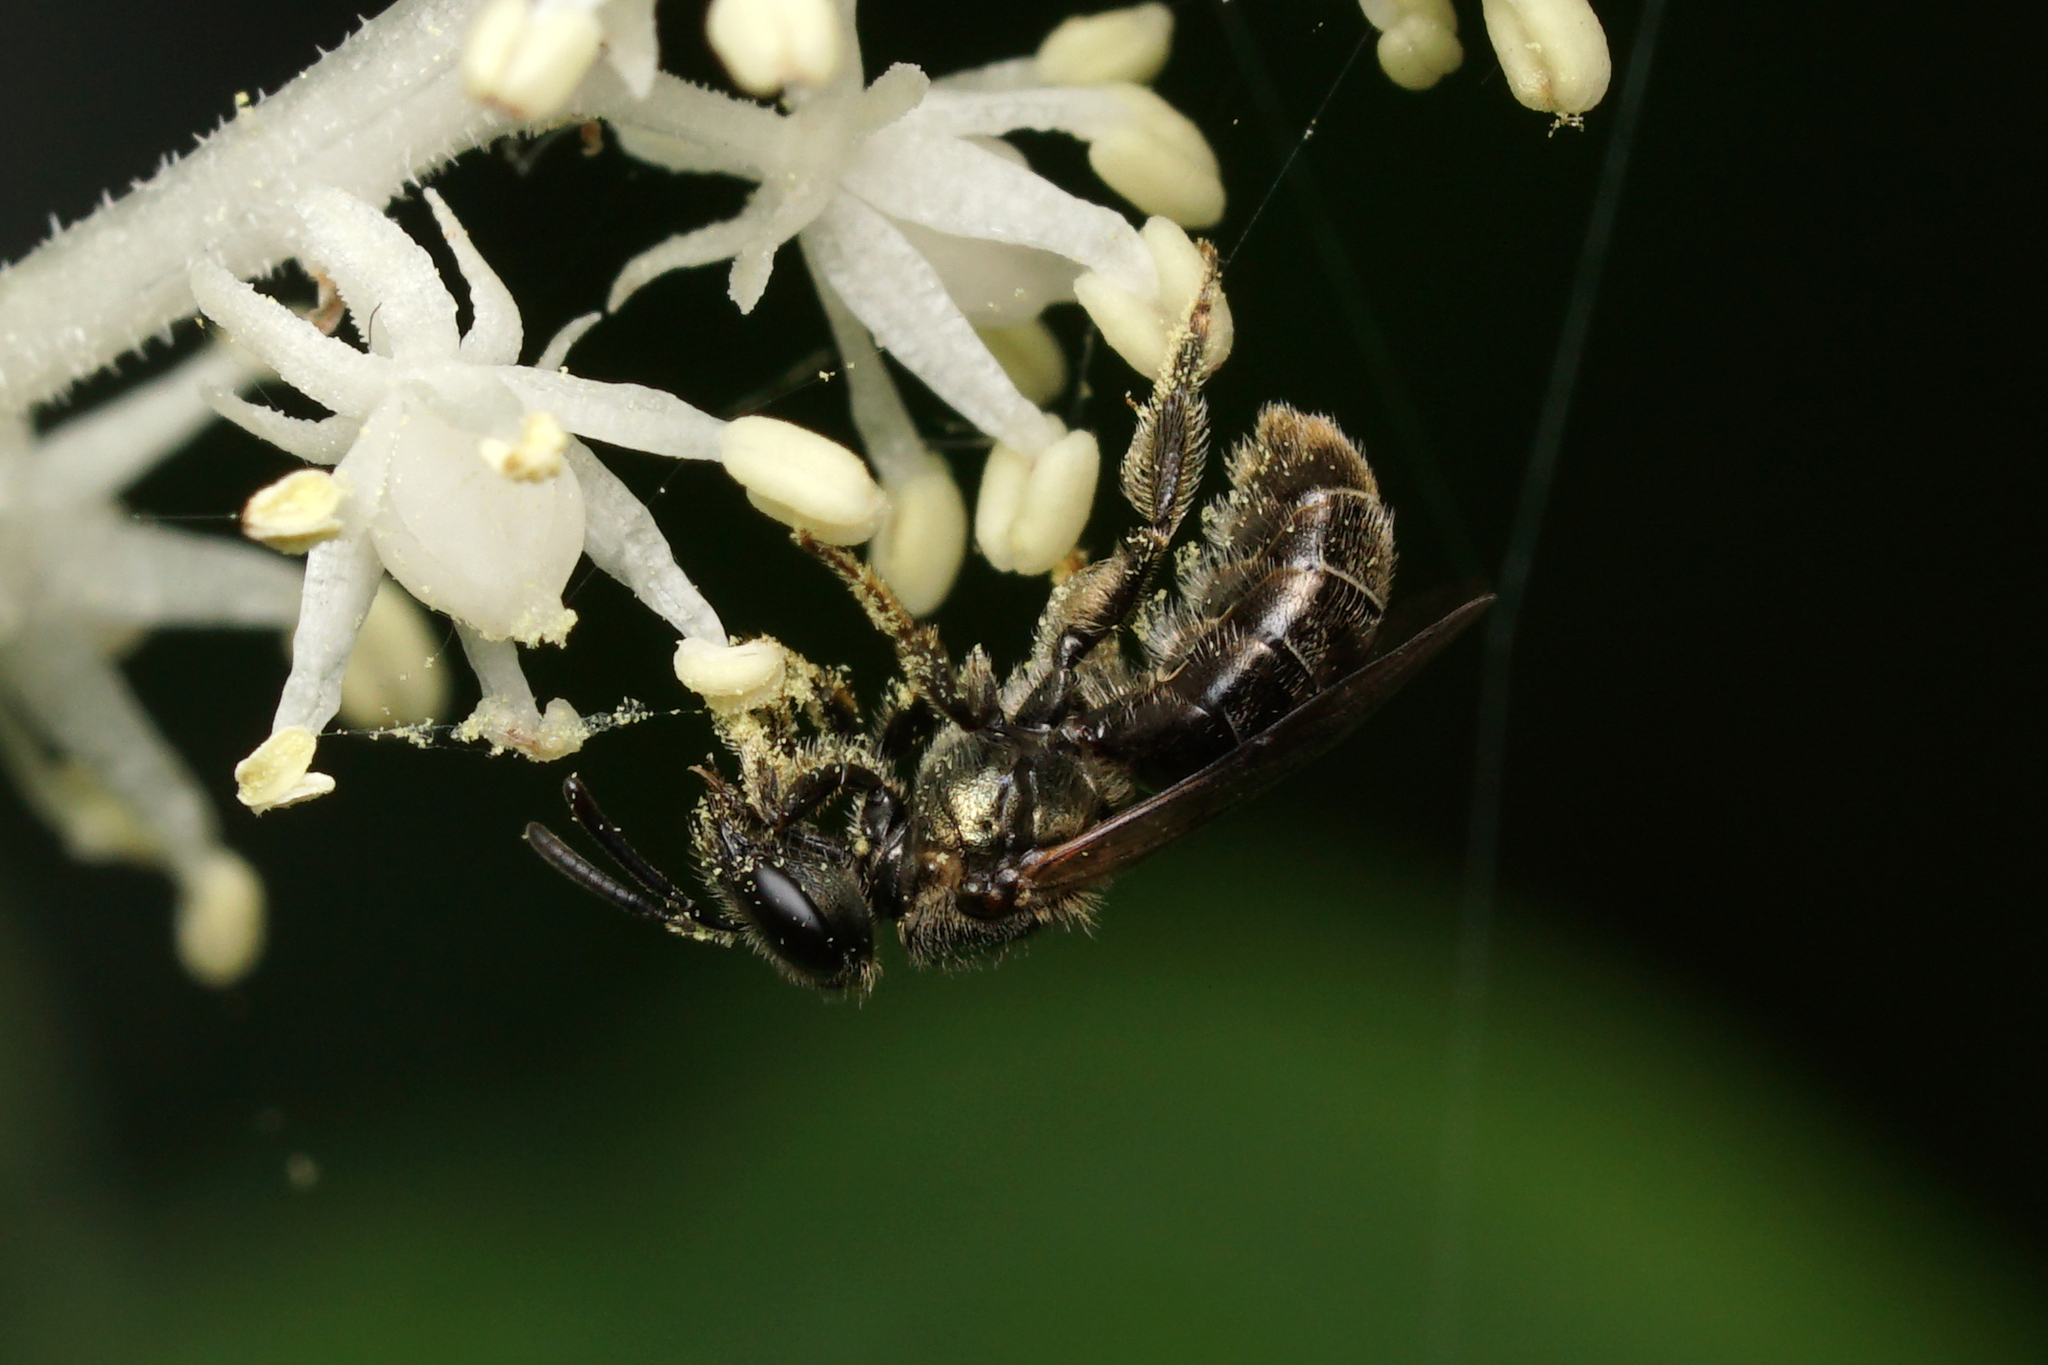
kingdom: Animalia
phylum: Arthropoda
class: Insecta
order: Hymenoptera
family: Halictidae
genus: Dialictus
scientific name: Dialictus
